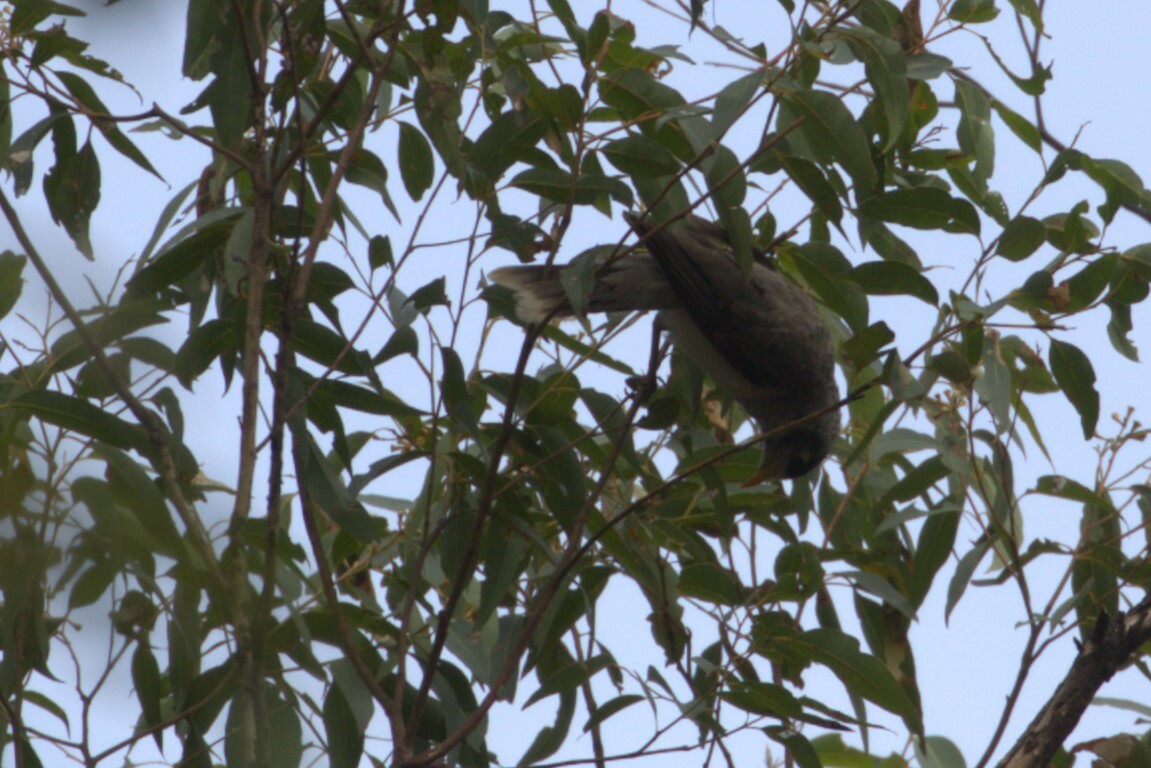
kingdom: Animalia
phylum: Chordata
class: Aves
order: Passeriformes
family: Meliphagidae
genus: Manorina
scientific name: Manorina melanocephala
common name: Noisy miner
